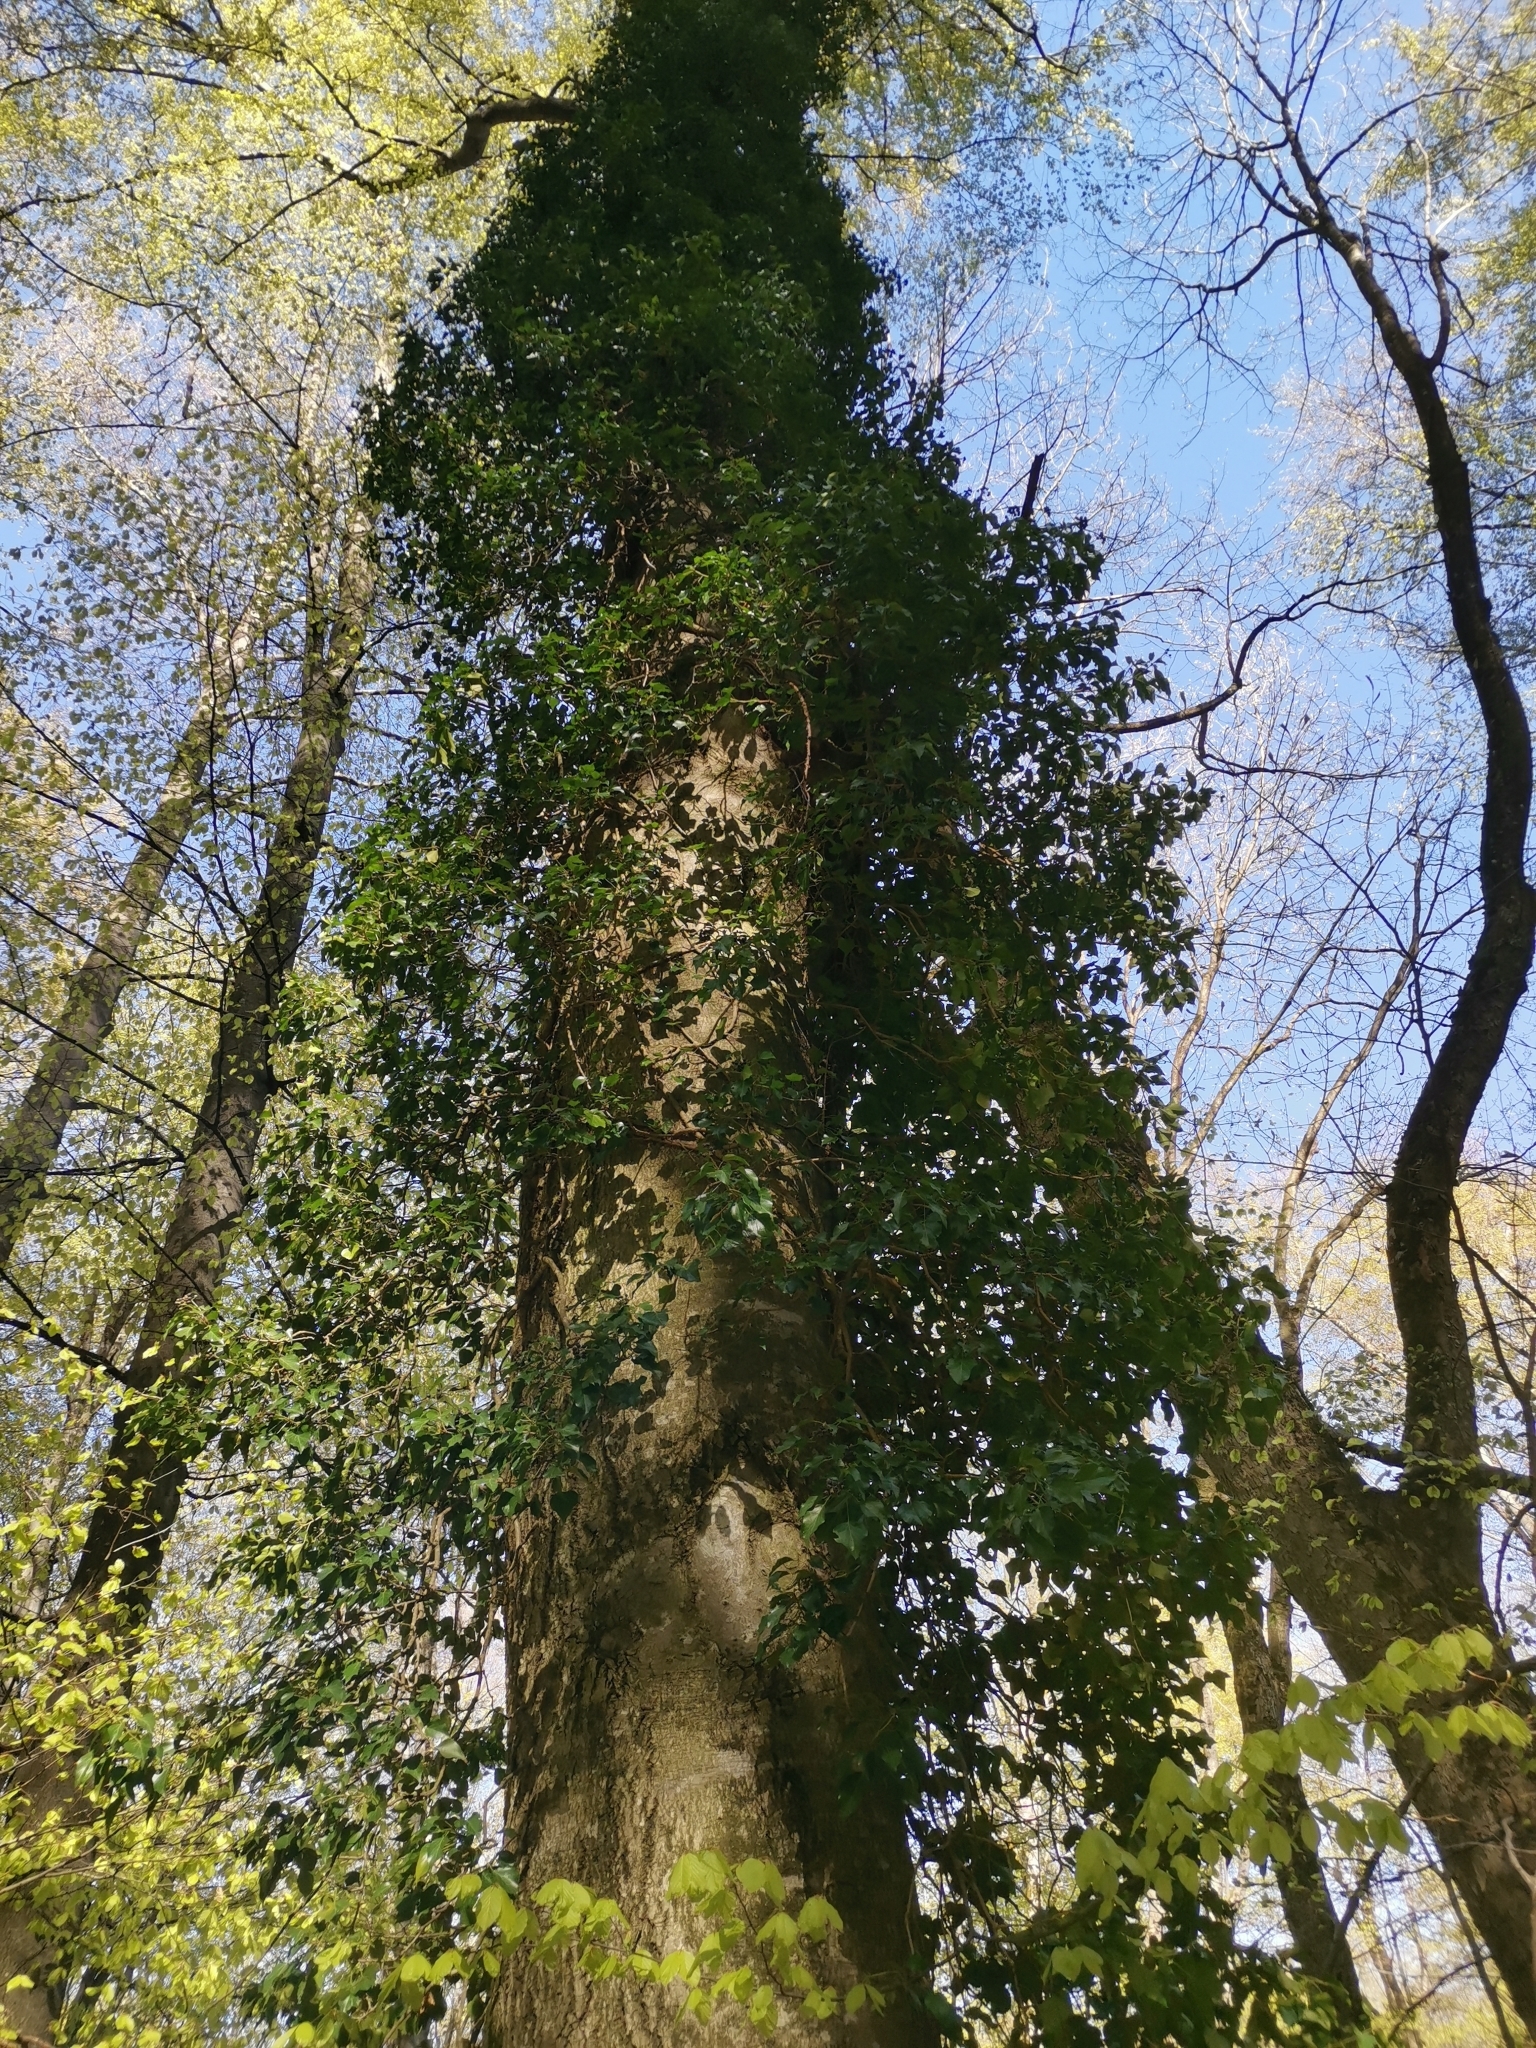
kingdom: Plantae
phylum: Tracheophyta
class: Magnoliopsida
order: Apiales
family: Araliaceae
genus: Hedera
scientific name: Hedera helix
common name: Ivy
